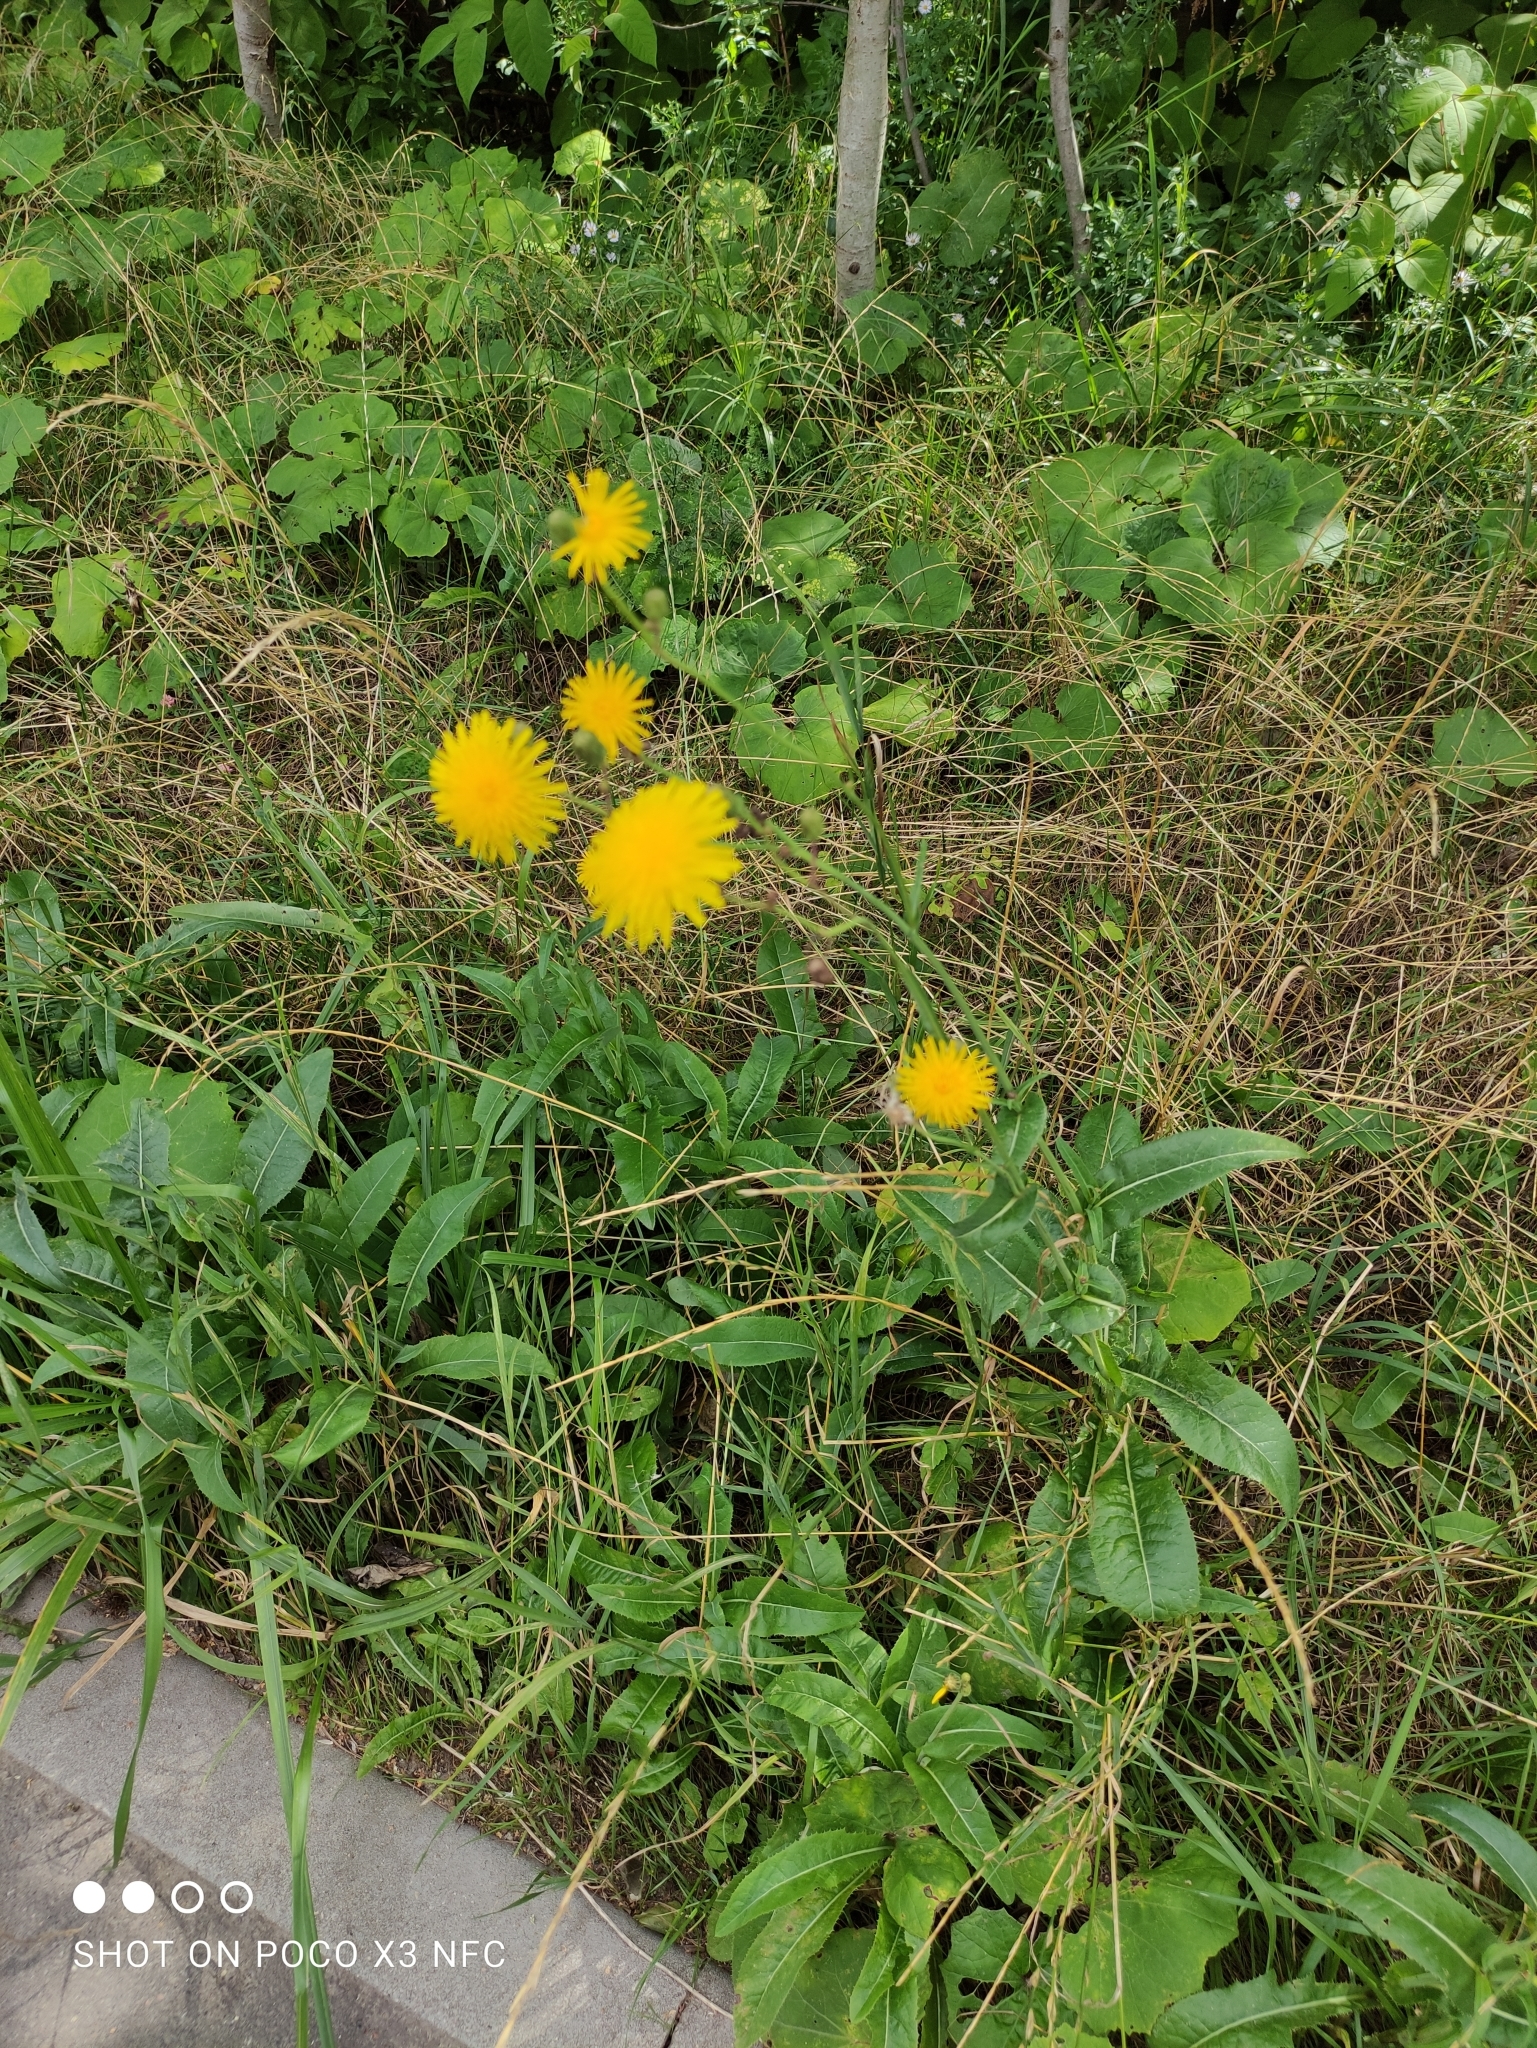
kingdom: Plantae
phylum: Tracheophyta
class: Magnoliopsida
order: Asterales
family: Asteraceae
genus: Sonchus
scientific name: Sonchus arvensis
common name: Perennial sow-thistle
